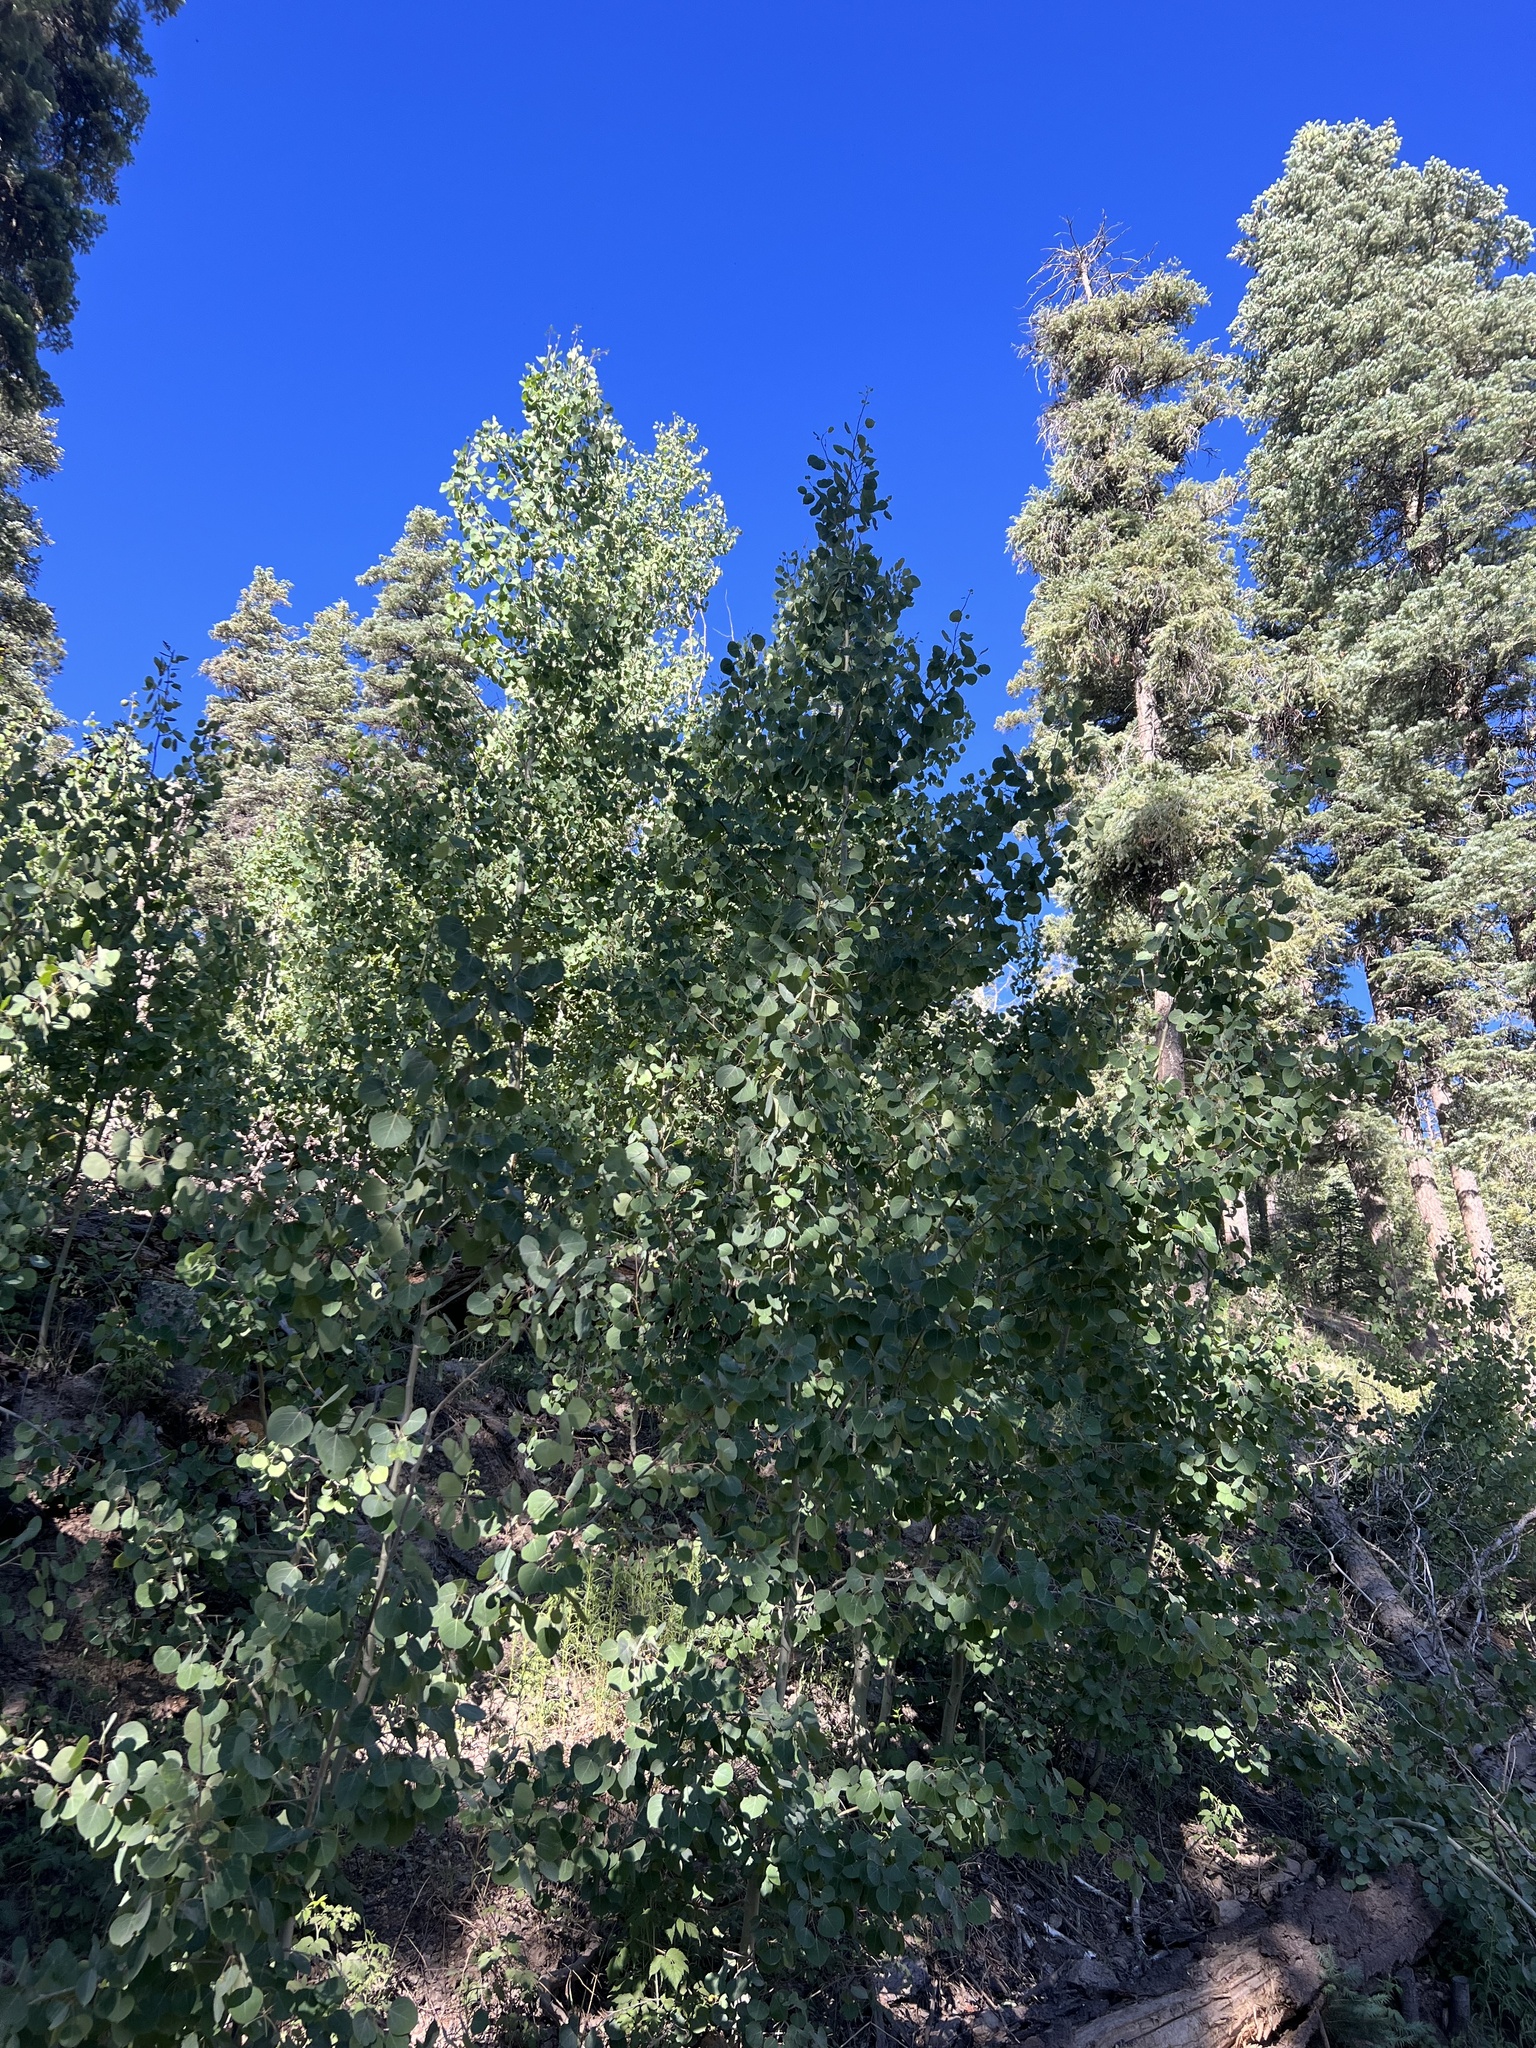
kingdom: Plantae
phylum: Tracheophyta
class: Magnoliopsida
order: Malpighiales
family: Salicaceae
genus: Populus
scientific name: Populus tremuloides
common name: Quaking aspen
